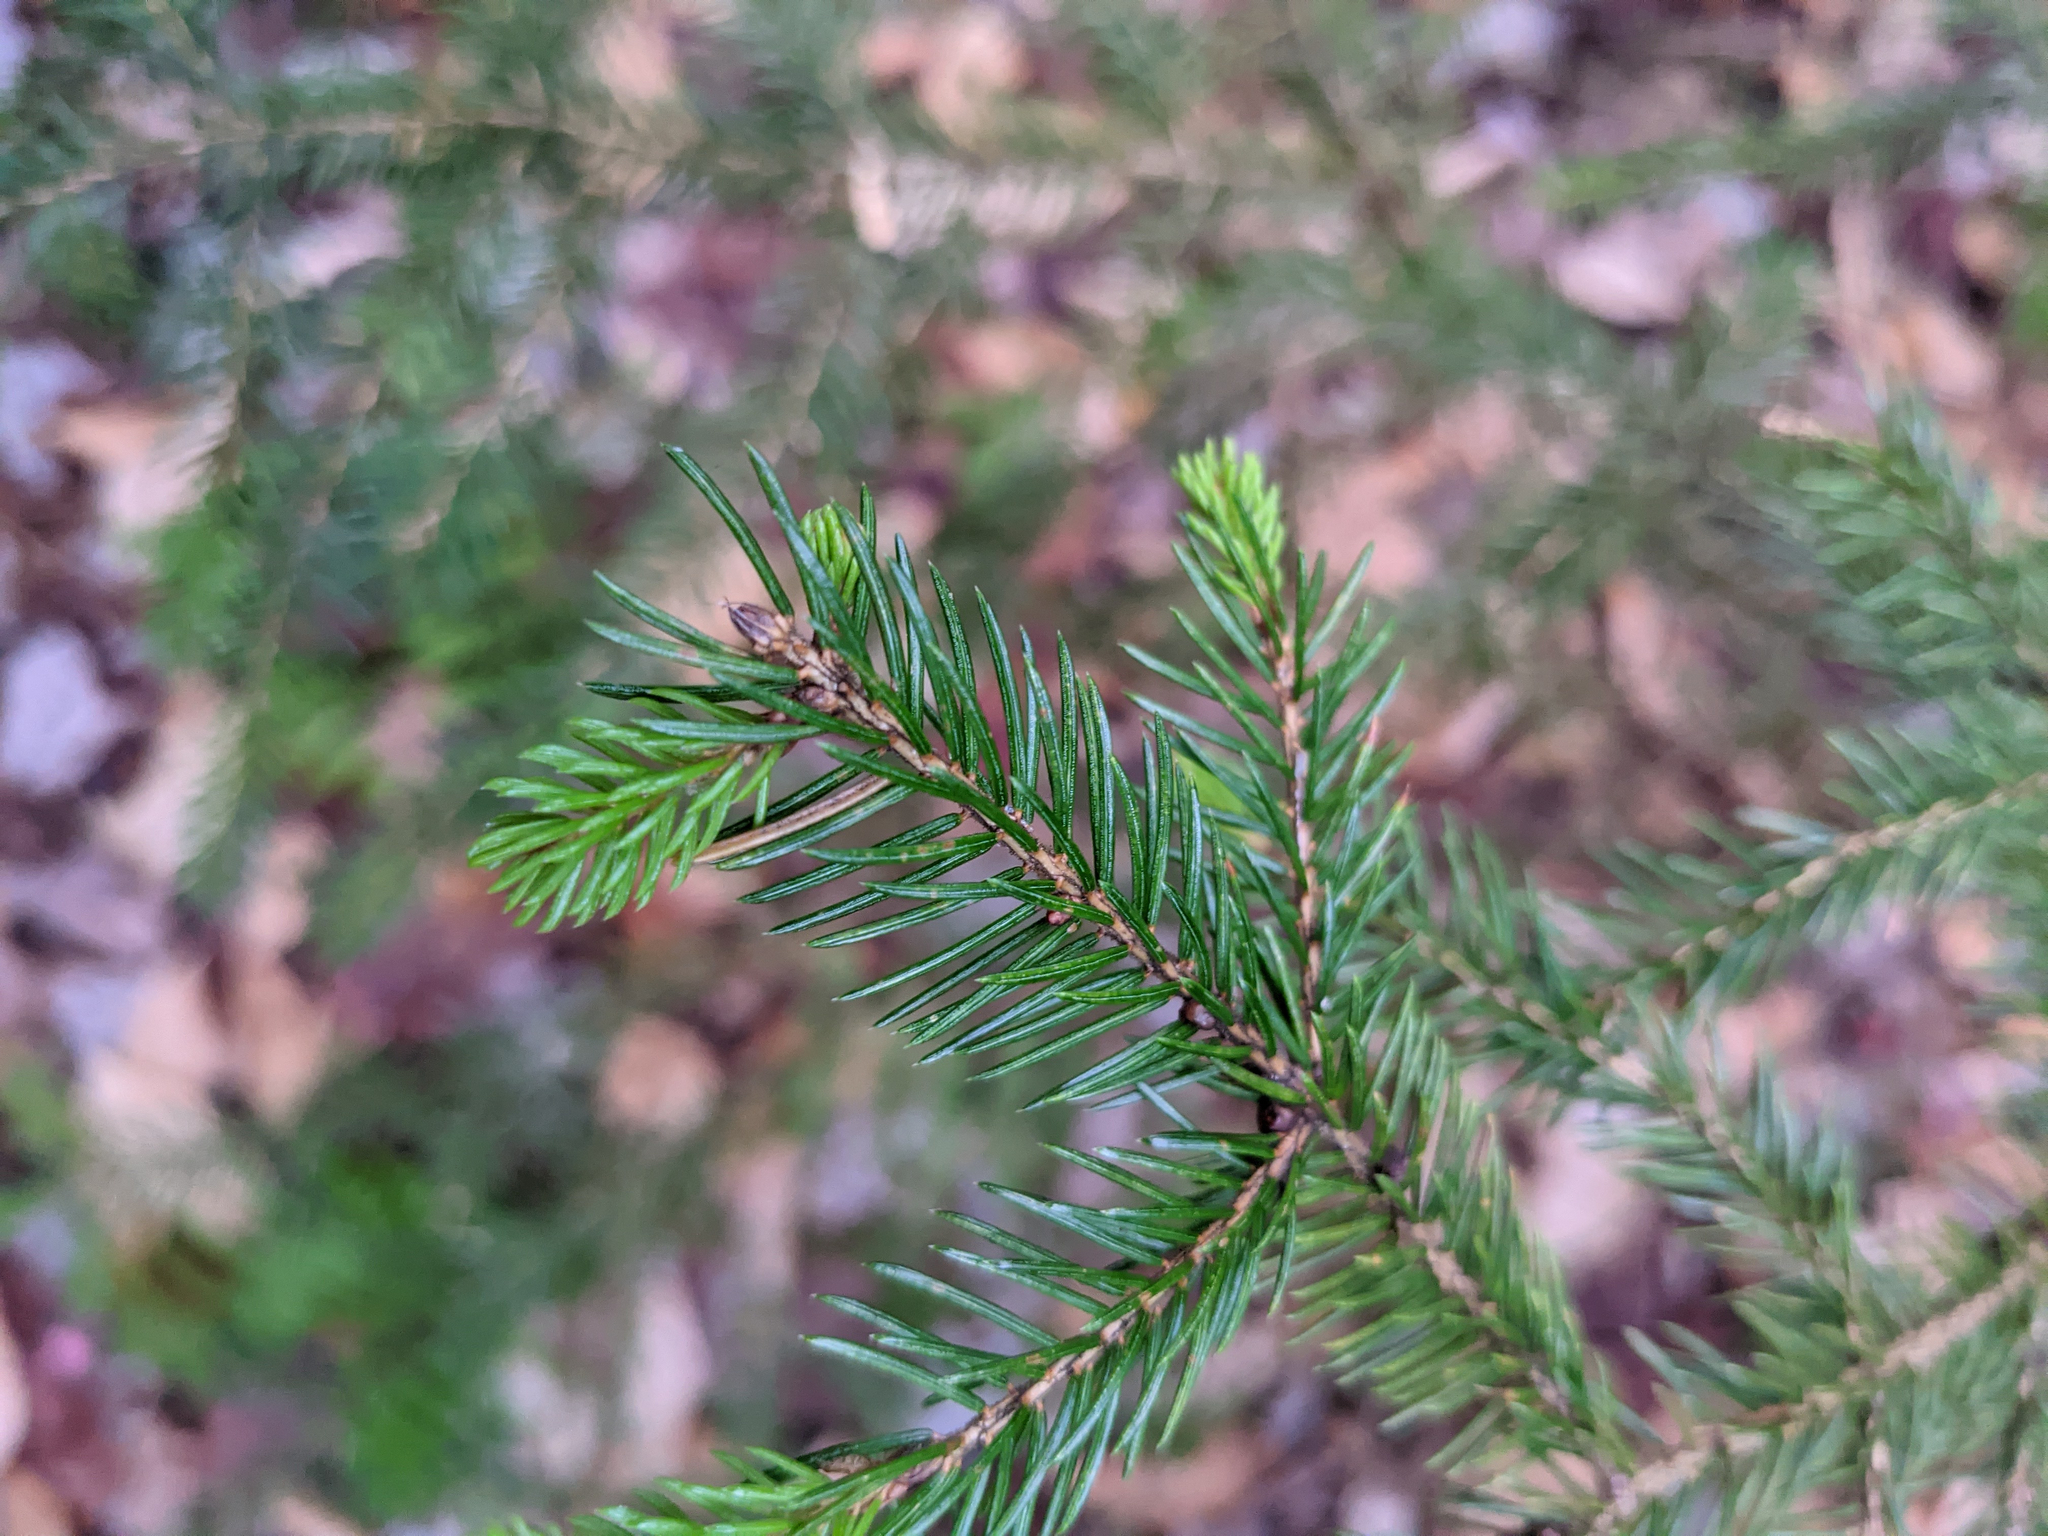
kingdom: Plantae
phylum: Tracheophyta
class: Pinopsida
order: Pinales
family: Pinaceae
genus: Picea
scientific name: Picea rubens
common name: Red spruce
